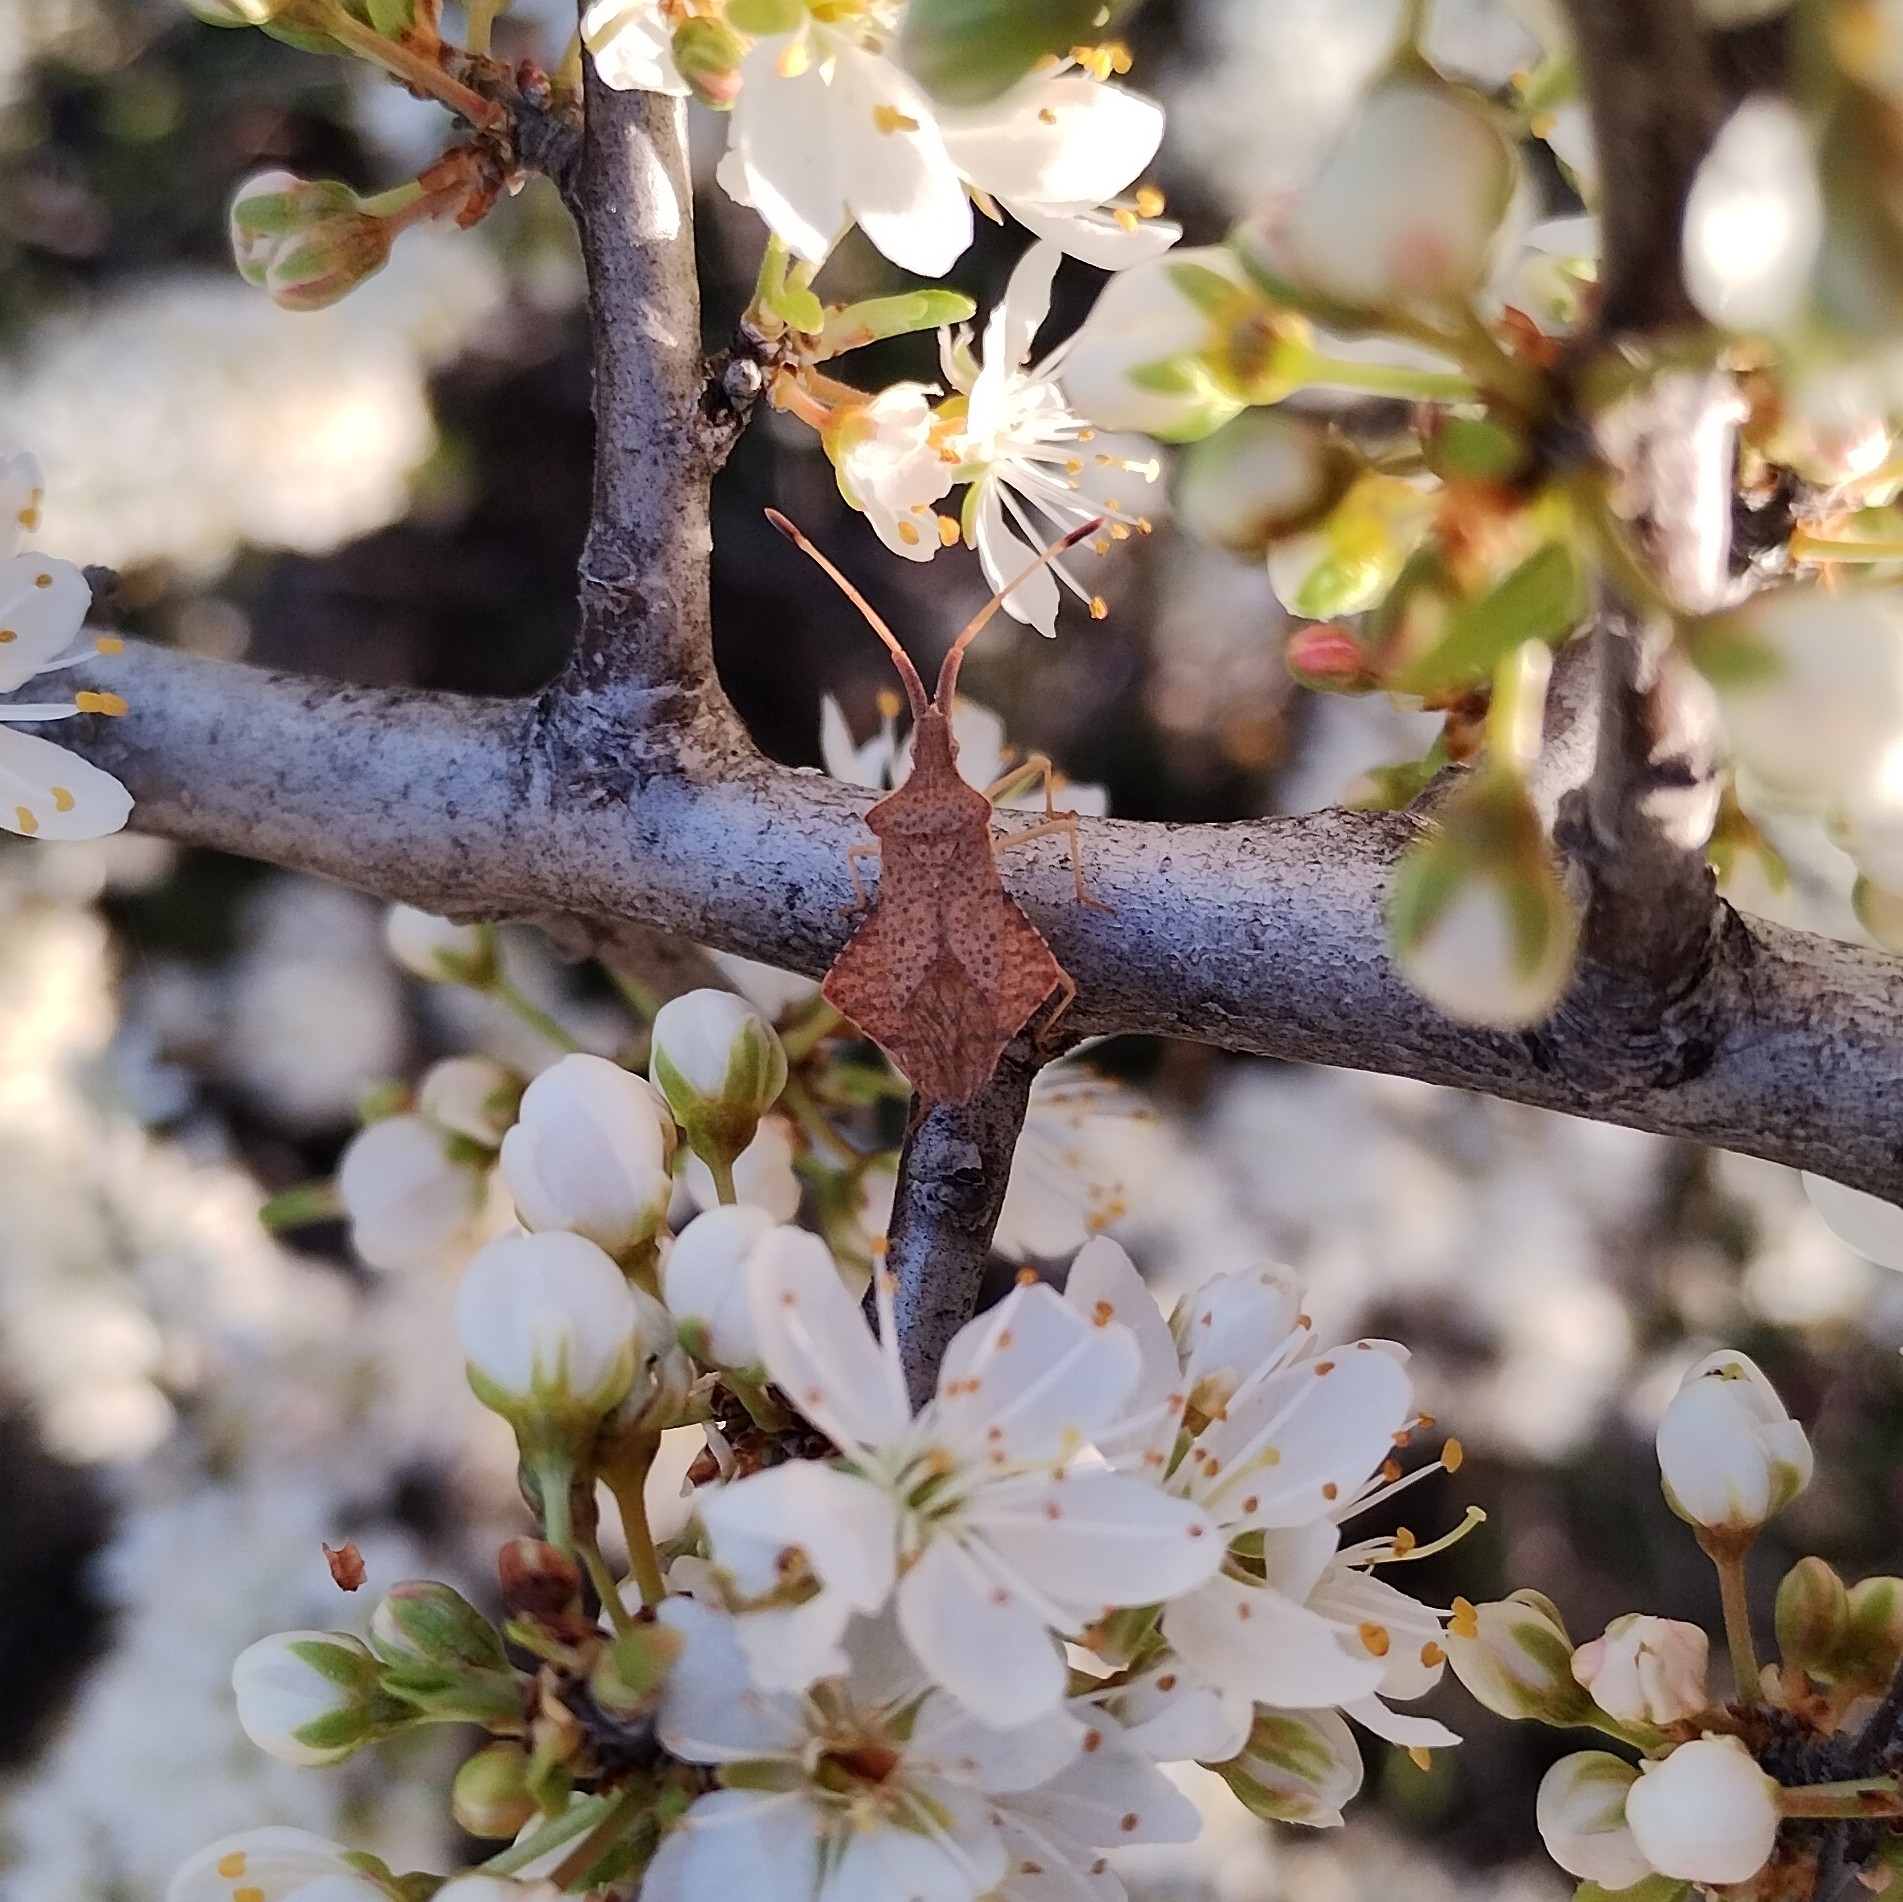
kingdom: Animalia
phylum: Arthropoda
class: Insecta
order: Hemiptera
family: Coreidae
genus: Syromastus
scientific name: Syromastus rhombeus
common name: Rhombic leatherbug
